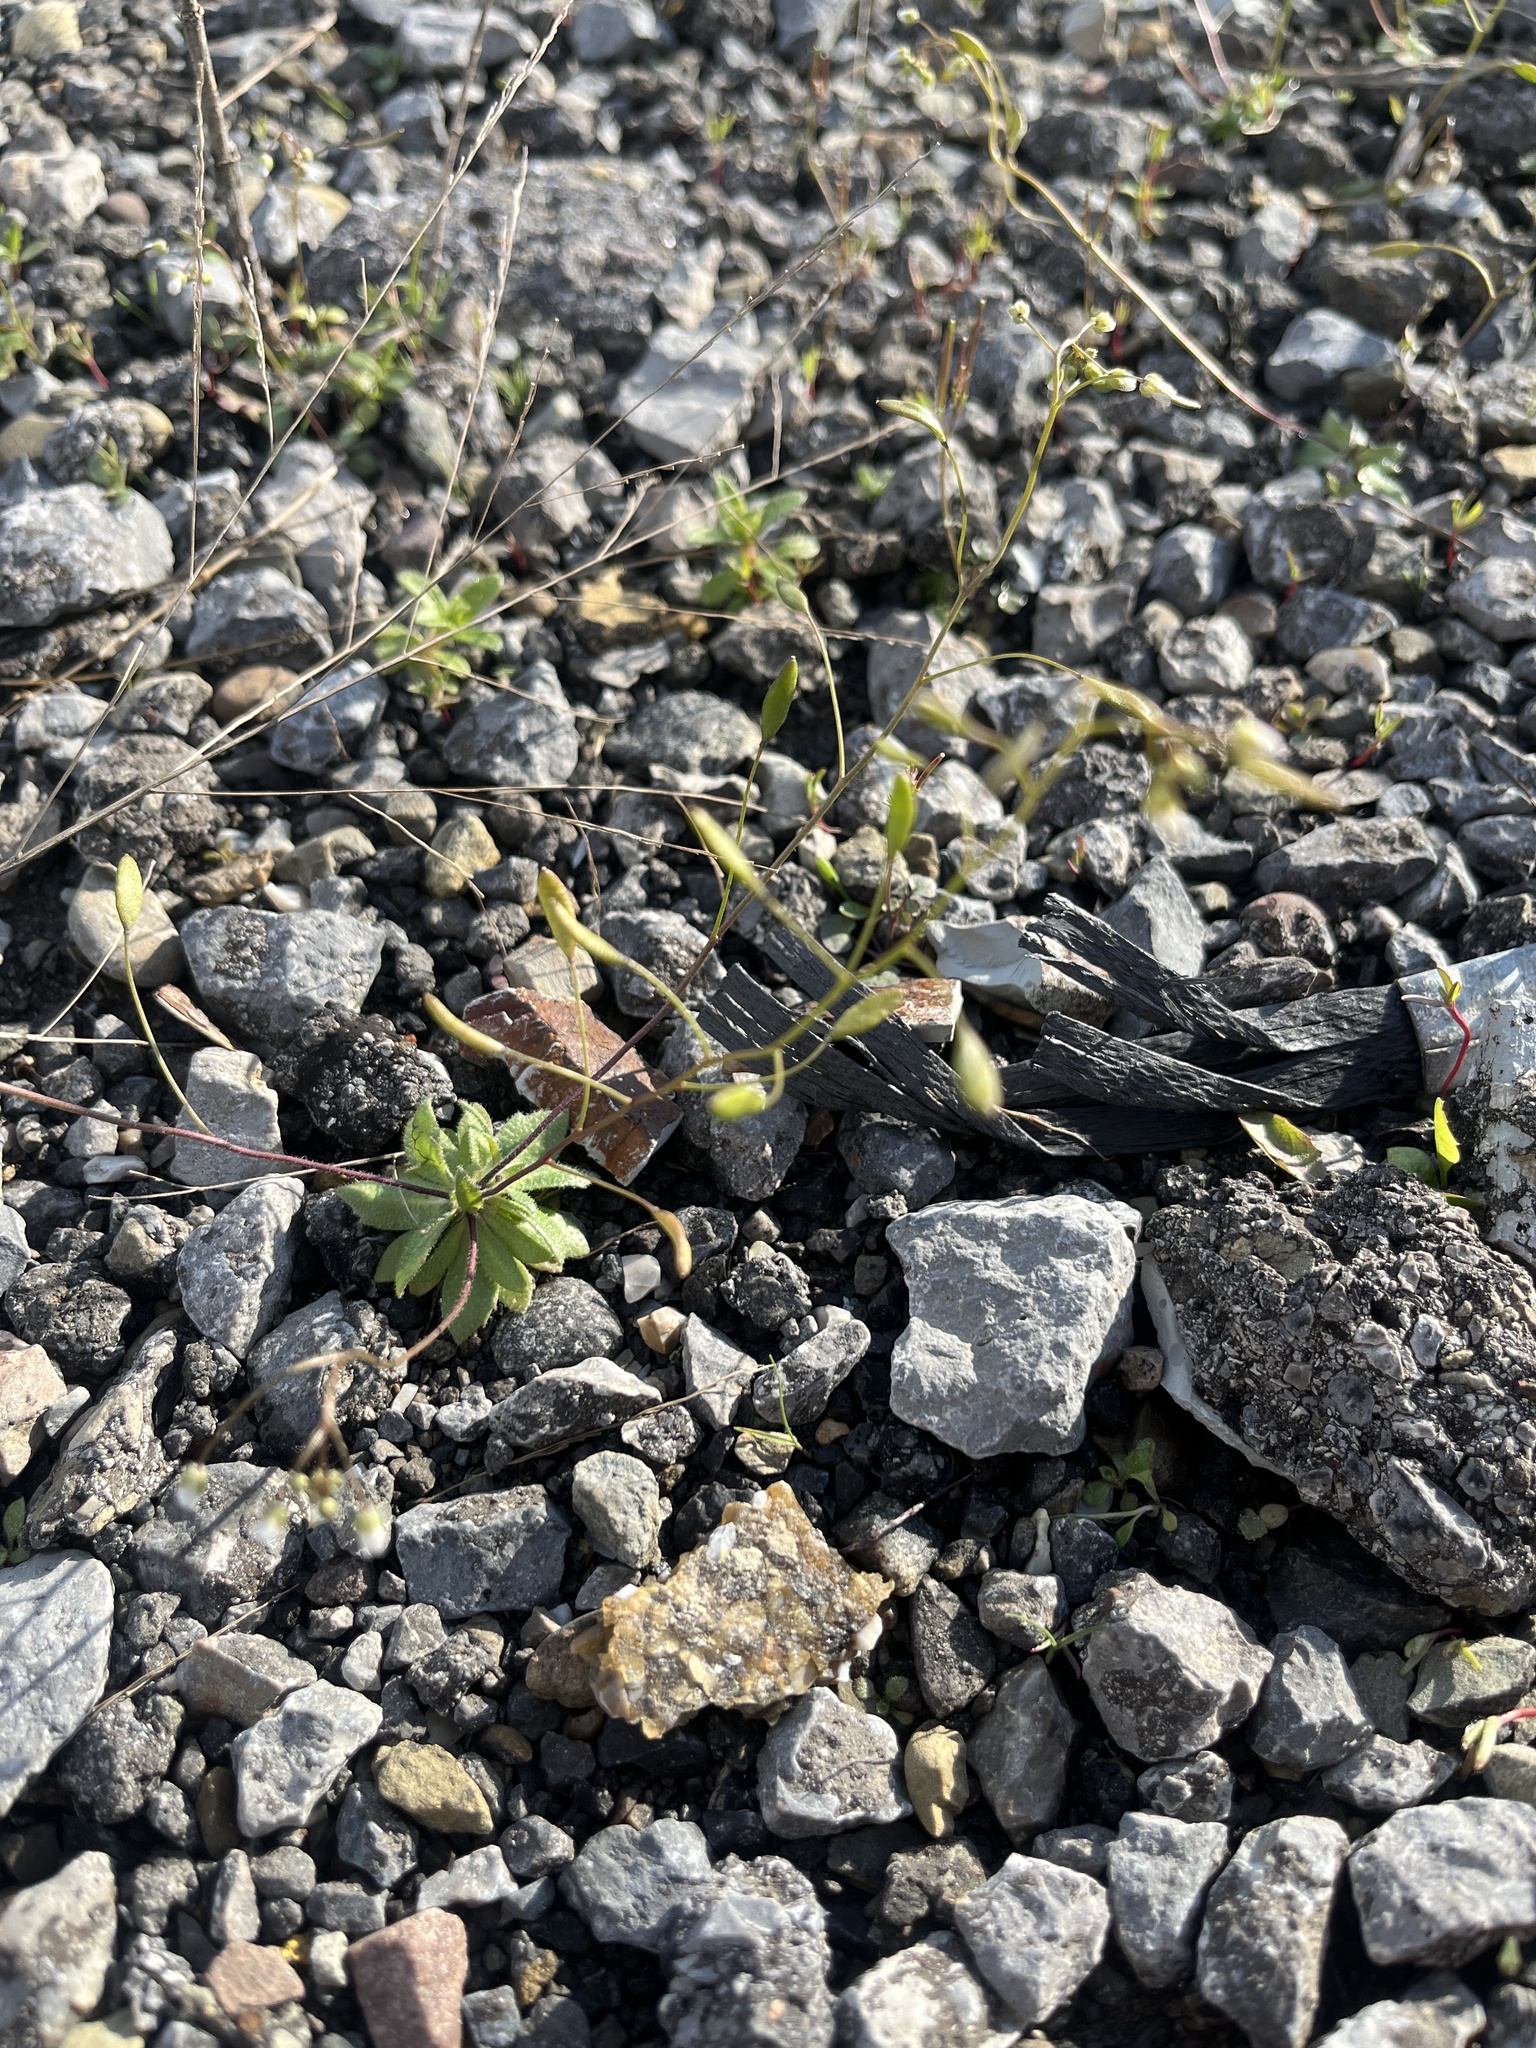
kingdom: Plantae
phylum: Tracheophyta
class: Magnoliopsida
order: Brassicales
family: Brassicaceae
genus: Draba
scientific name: Draba verna
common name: Spring draba
